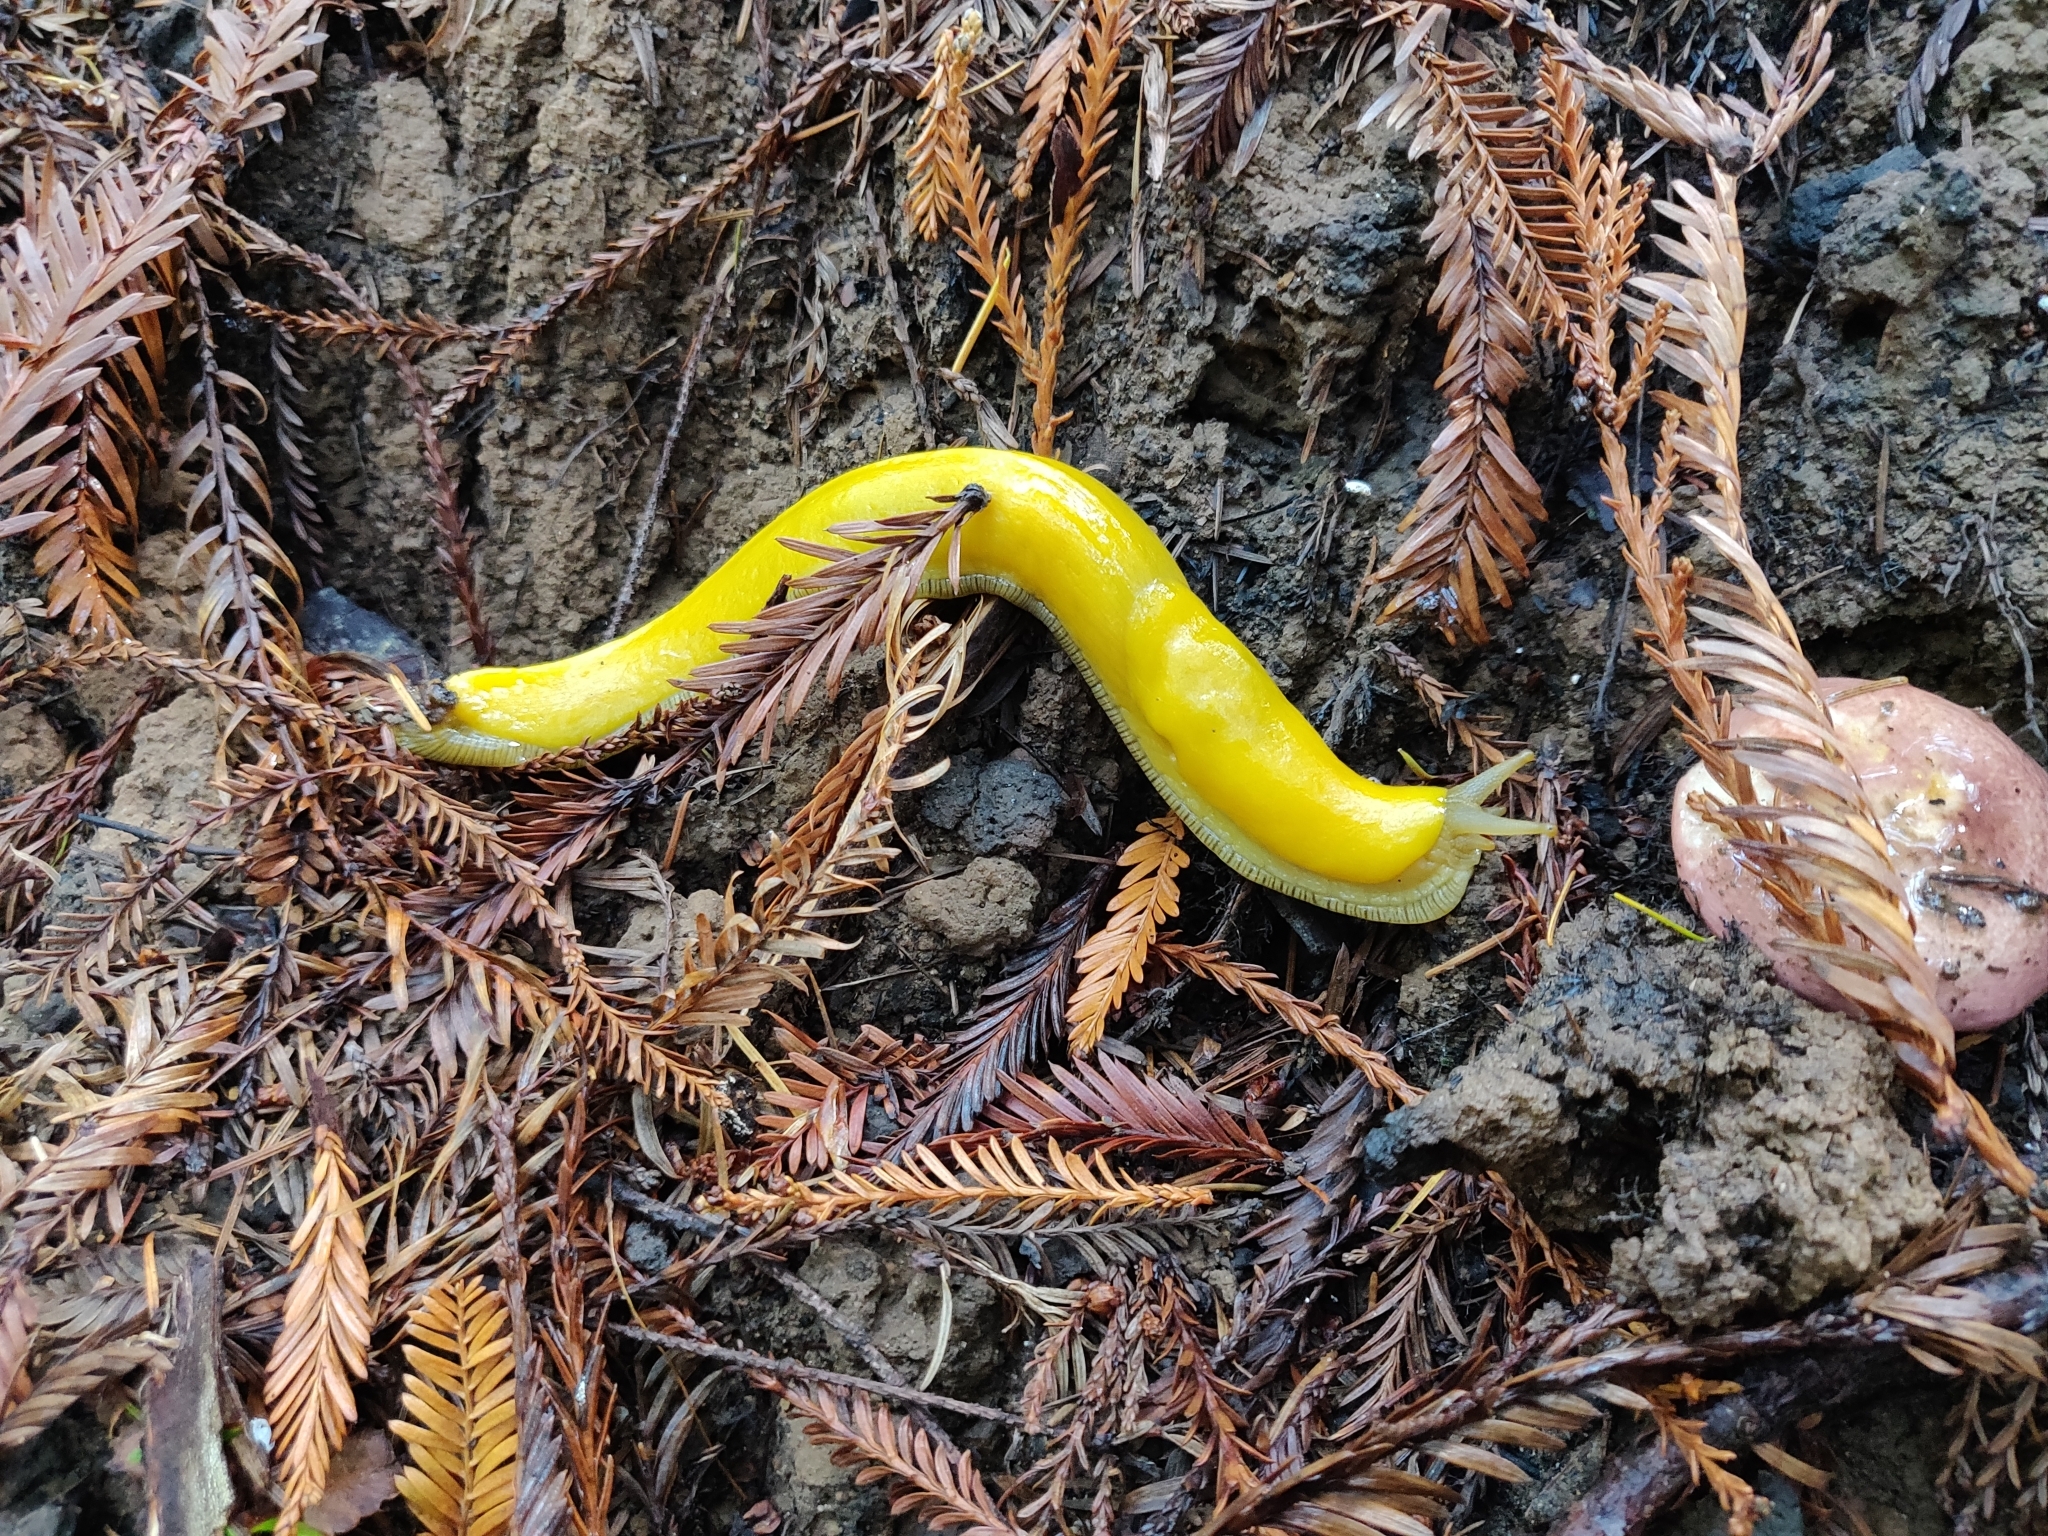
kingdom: Animalia
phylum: Mollusca
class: Gastropoda
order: Stylommatophora
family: Ariolimacidae
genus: Ariolimax
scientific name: Ariolimax californicus
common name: California banana slug
